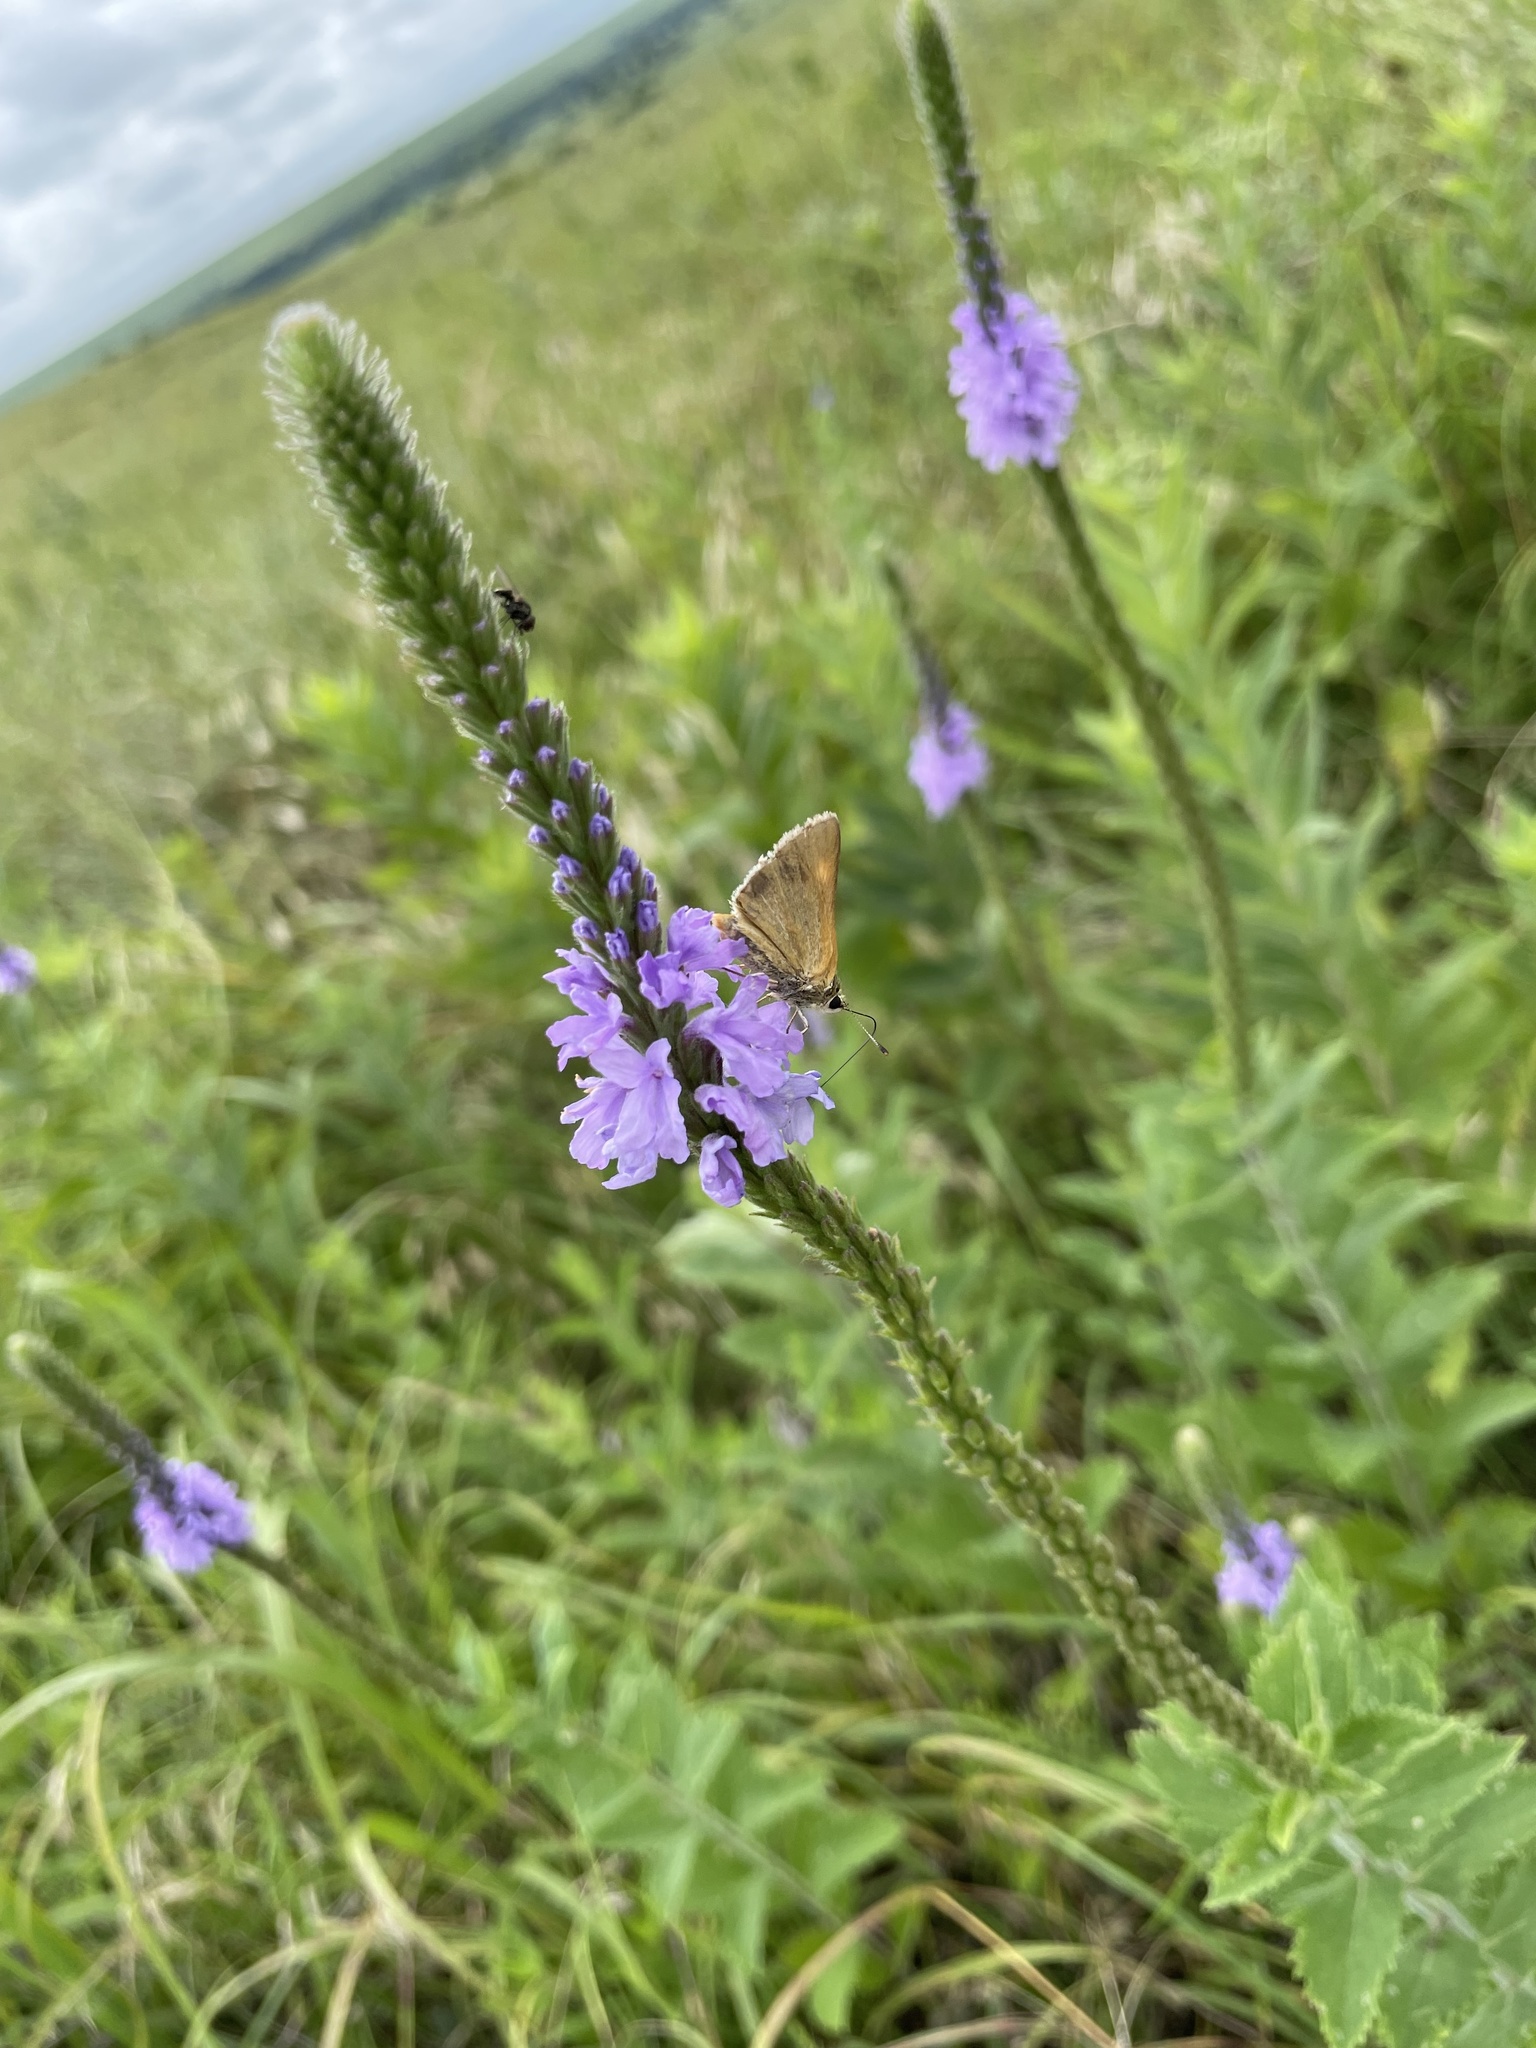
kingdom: Animalia
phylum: Arthropoda
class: Insecta
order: Lepidoptera
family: Hesperiidae
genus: Polites
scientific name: Polites themistocles
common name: Tawny-edged skipper
